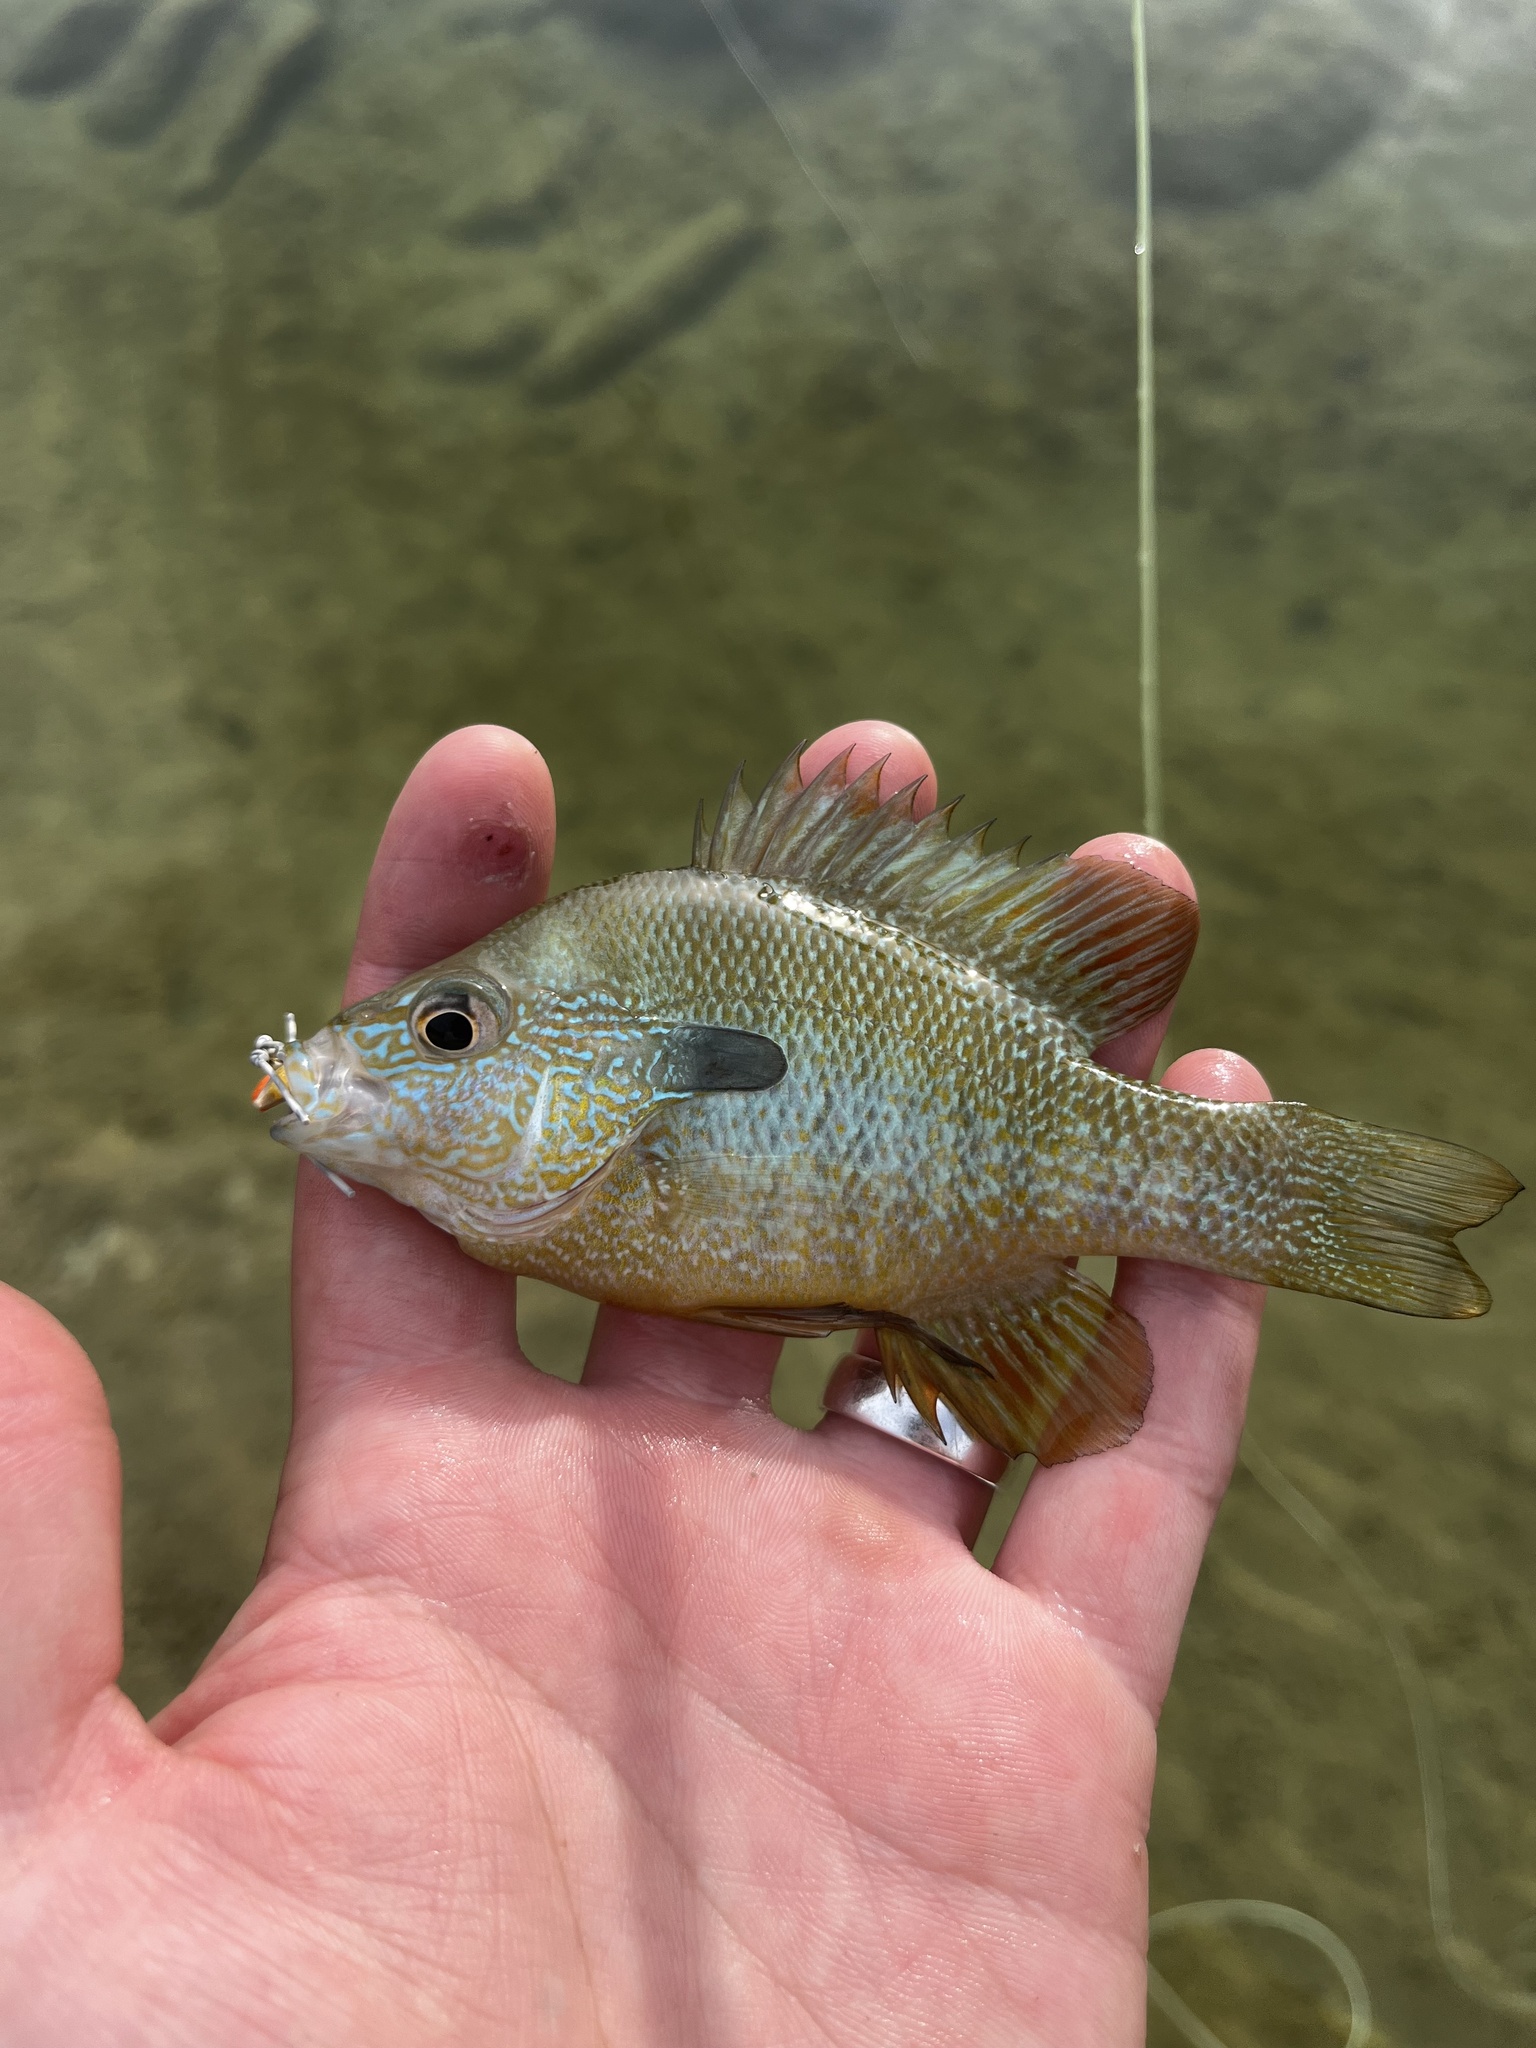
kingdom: Animalia
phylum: Chordata
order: Perciformes
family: Centrarchidae
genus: Lepomis
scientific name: Lepomis aquilensis
